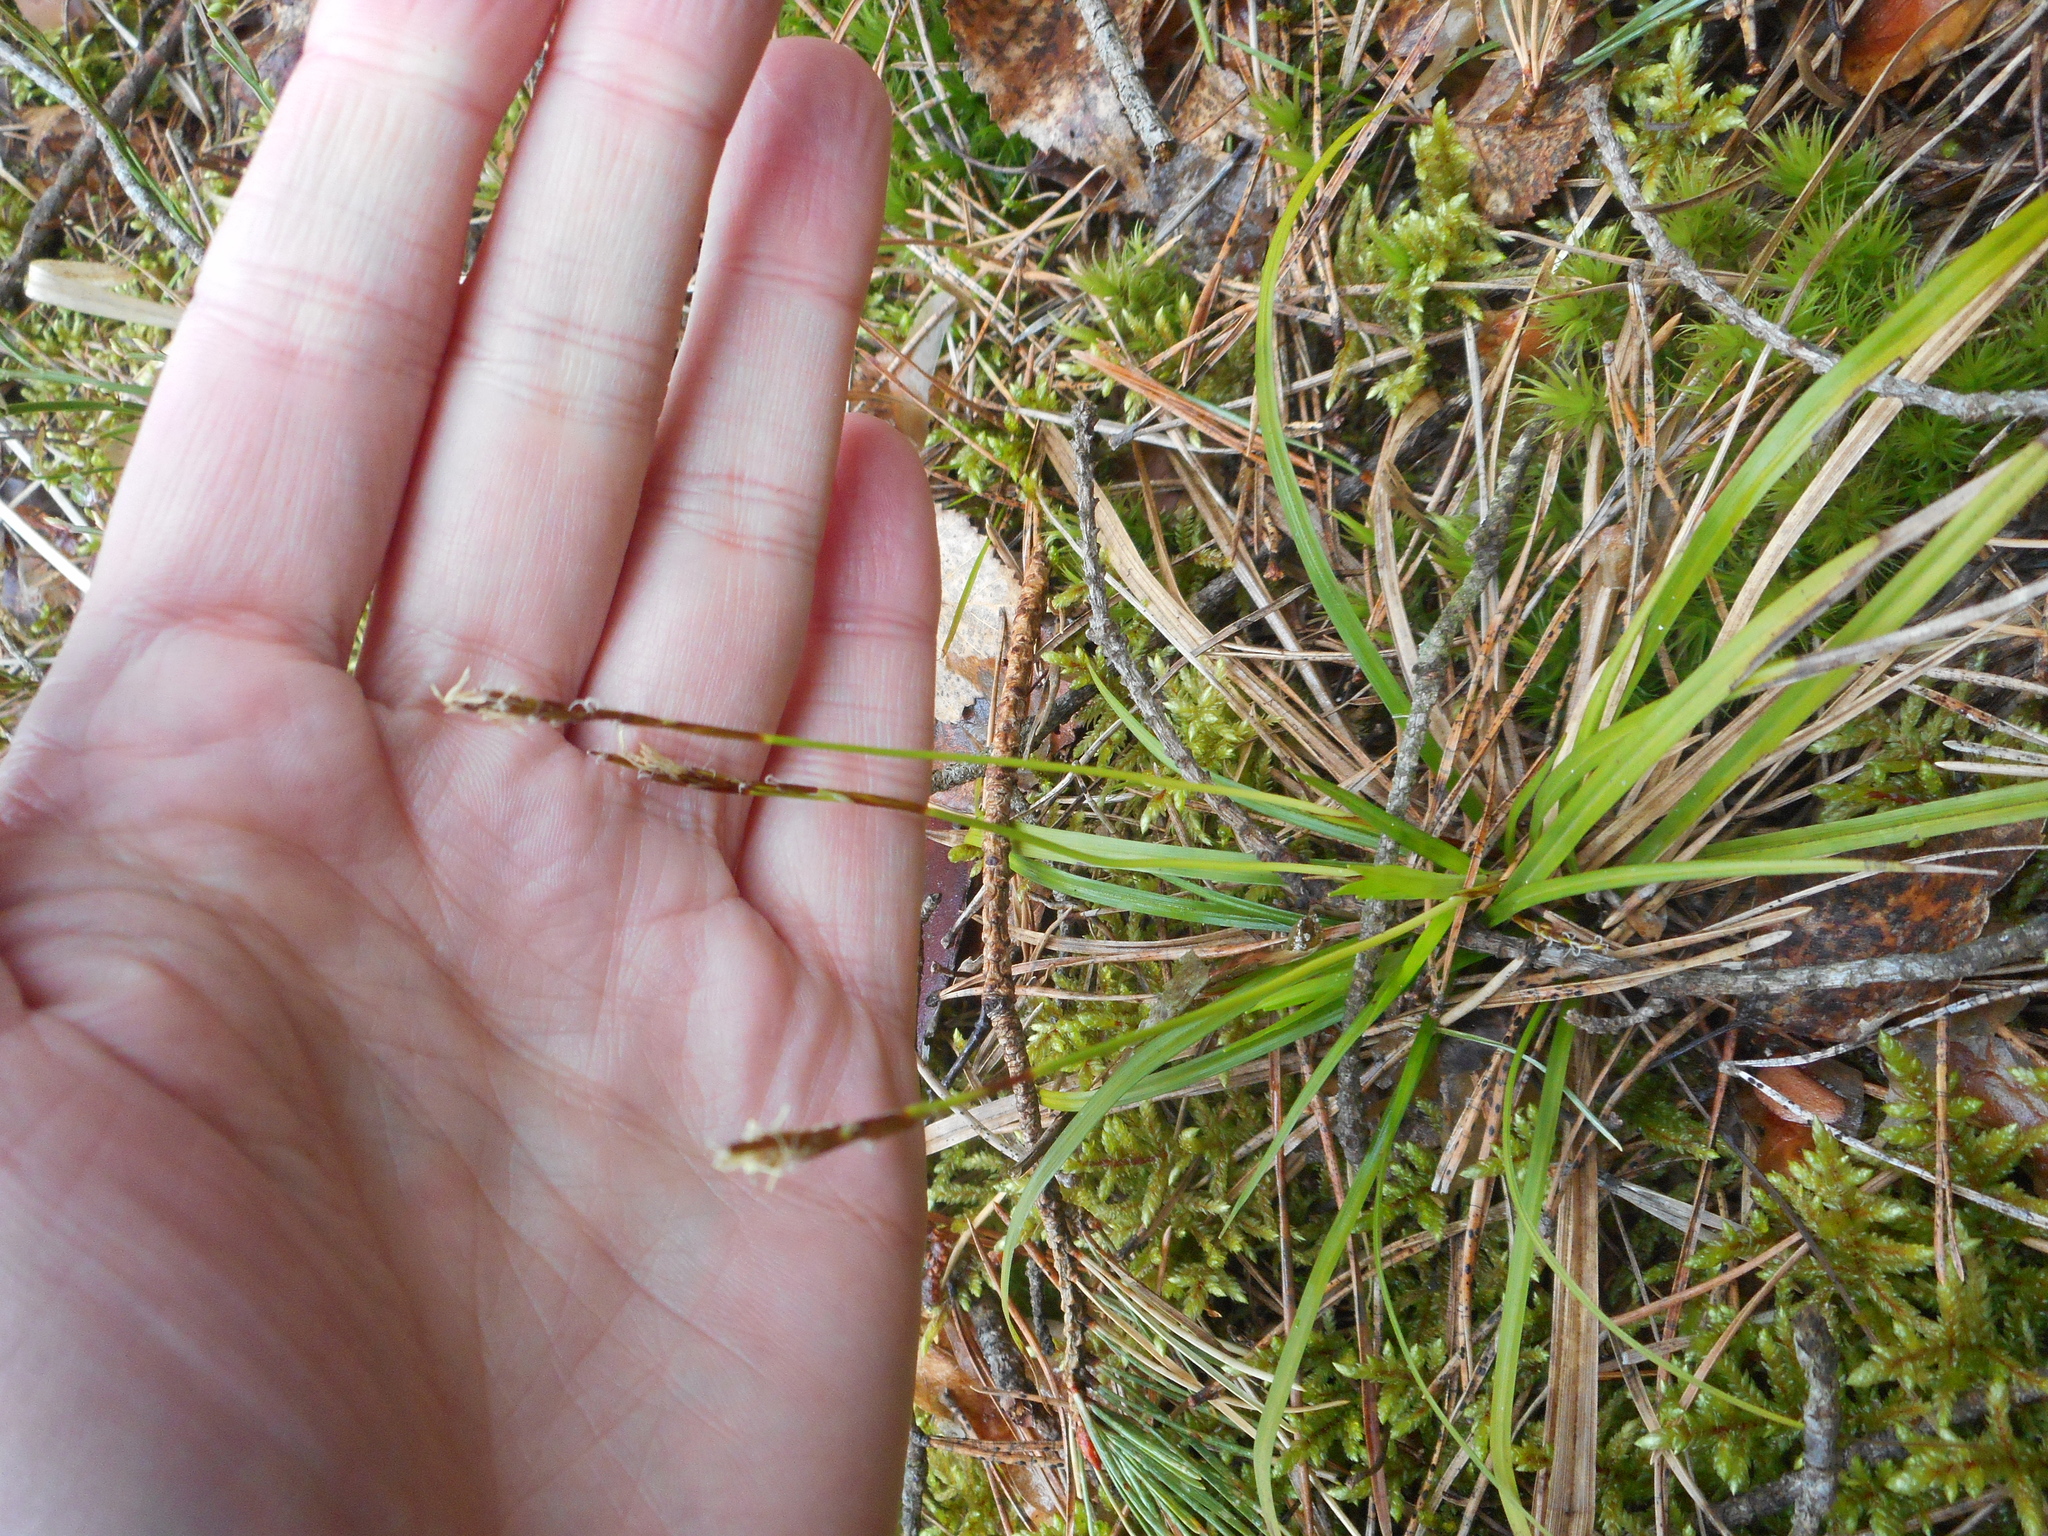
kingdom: Plantae
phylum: Tracheophyta
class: Liliopsida
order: Poales
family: Cyperaceae
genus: Carex
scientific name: Carex digitata
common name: Fingered sedge
